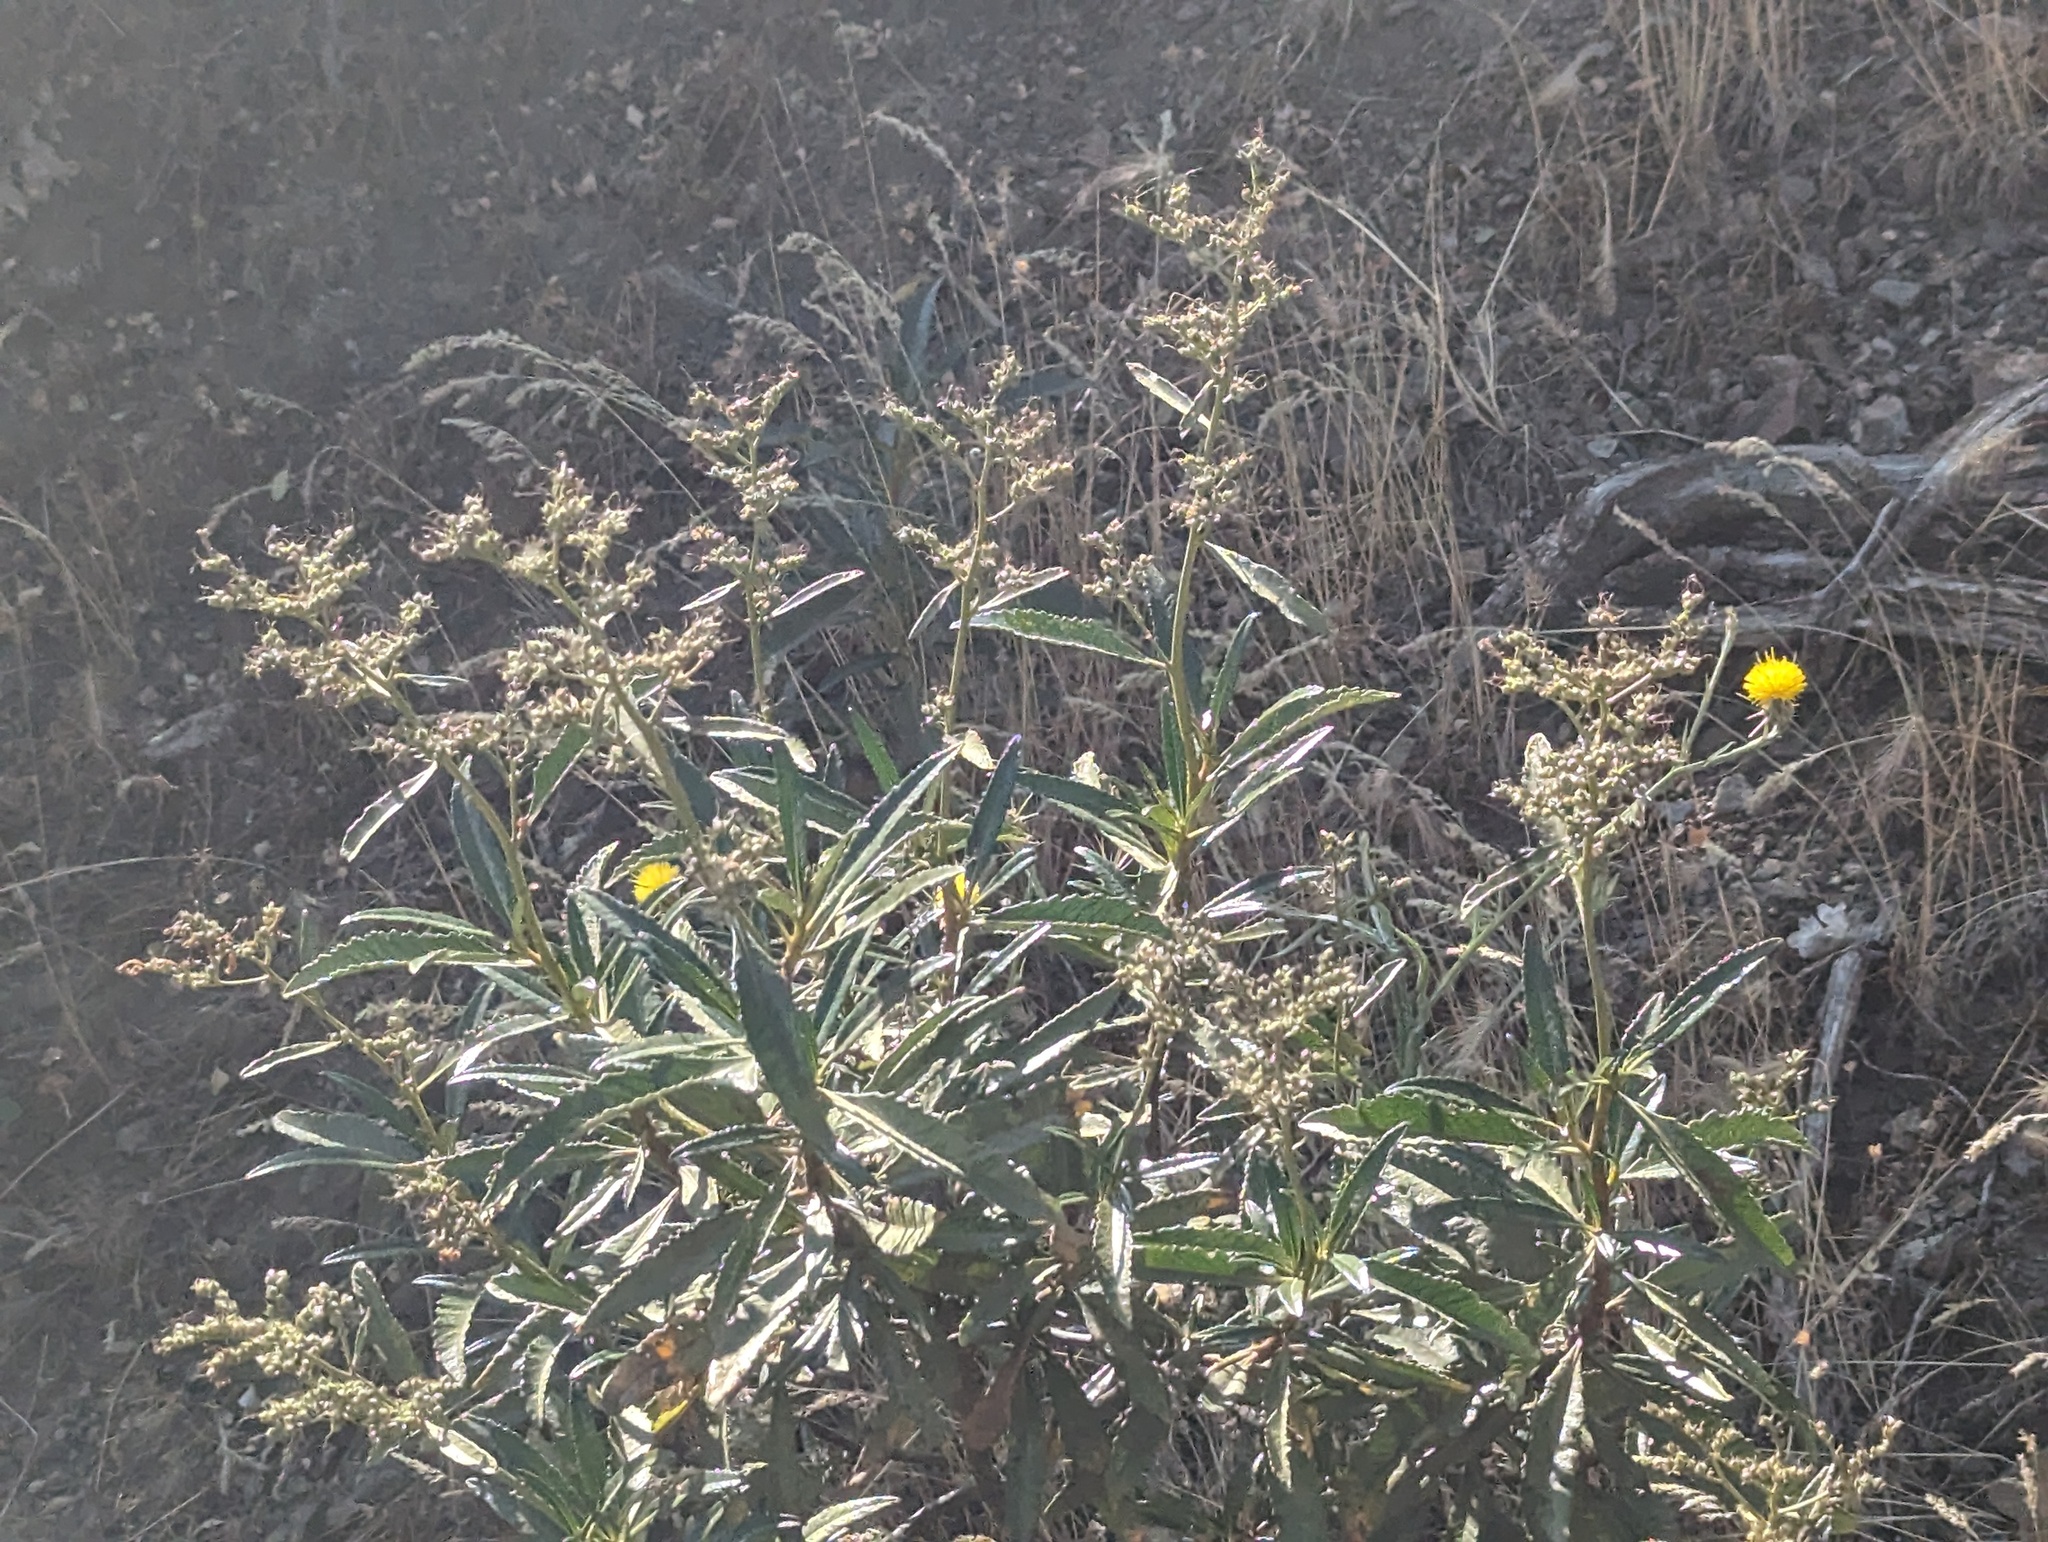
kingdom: Plantae
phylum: Tracheophyta
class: Magnoliopsida
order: Boraginales
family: Namaceae
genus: Eriodictyon
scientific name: Eriodictyon californicum
